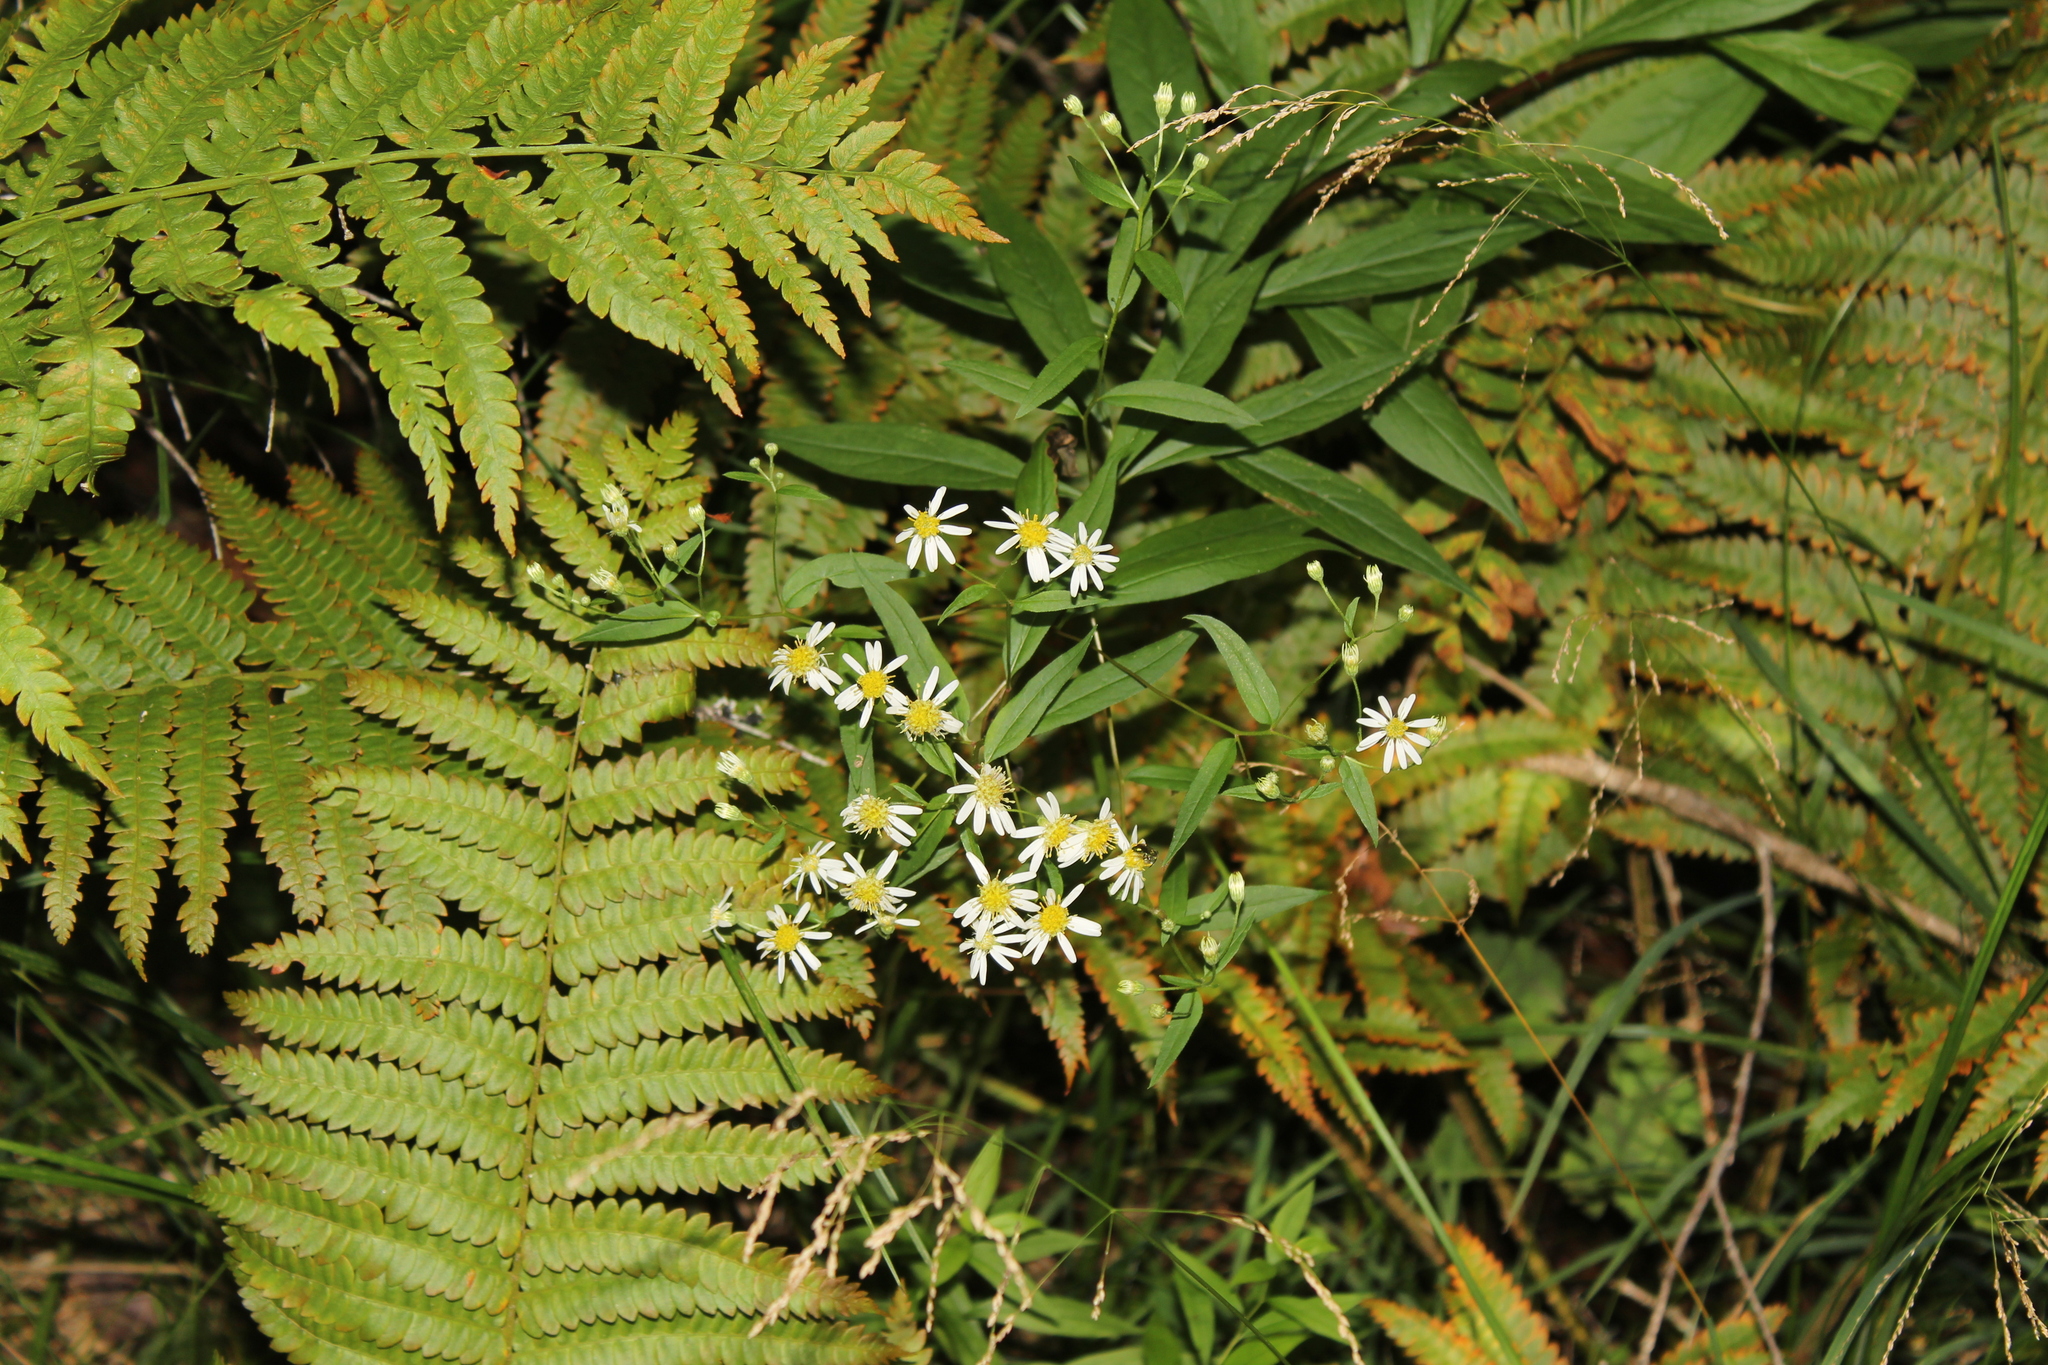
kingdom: Plantae
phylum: Tracheophyta
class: Magnoliopsida
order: Asterales
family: Asteraceae
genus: Doellingeria
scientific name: Doellingeria umbellata
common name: Flat-top white aster
